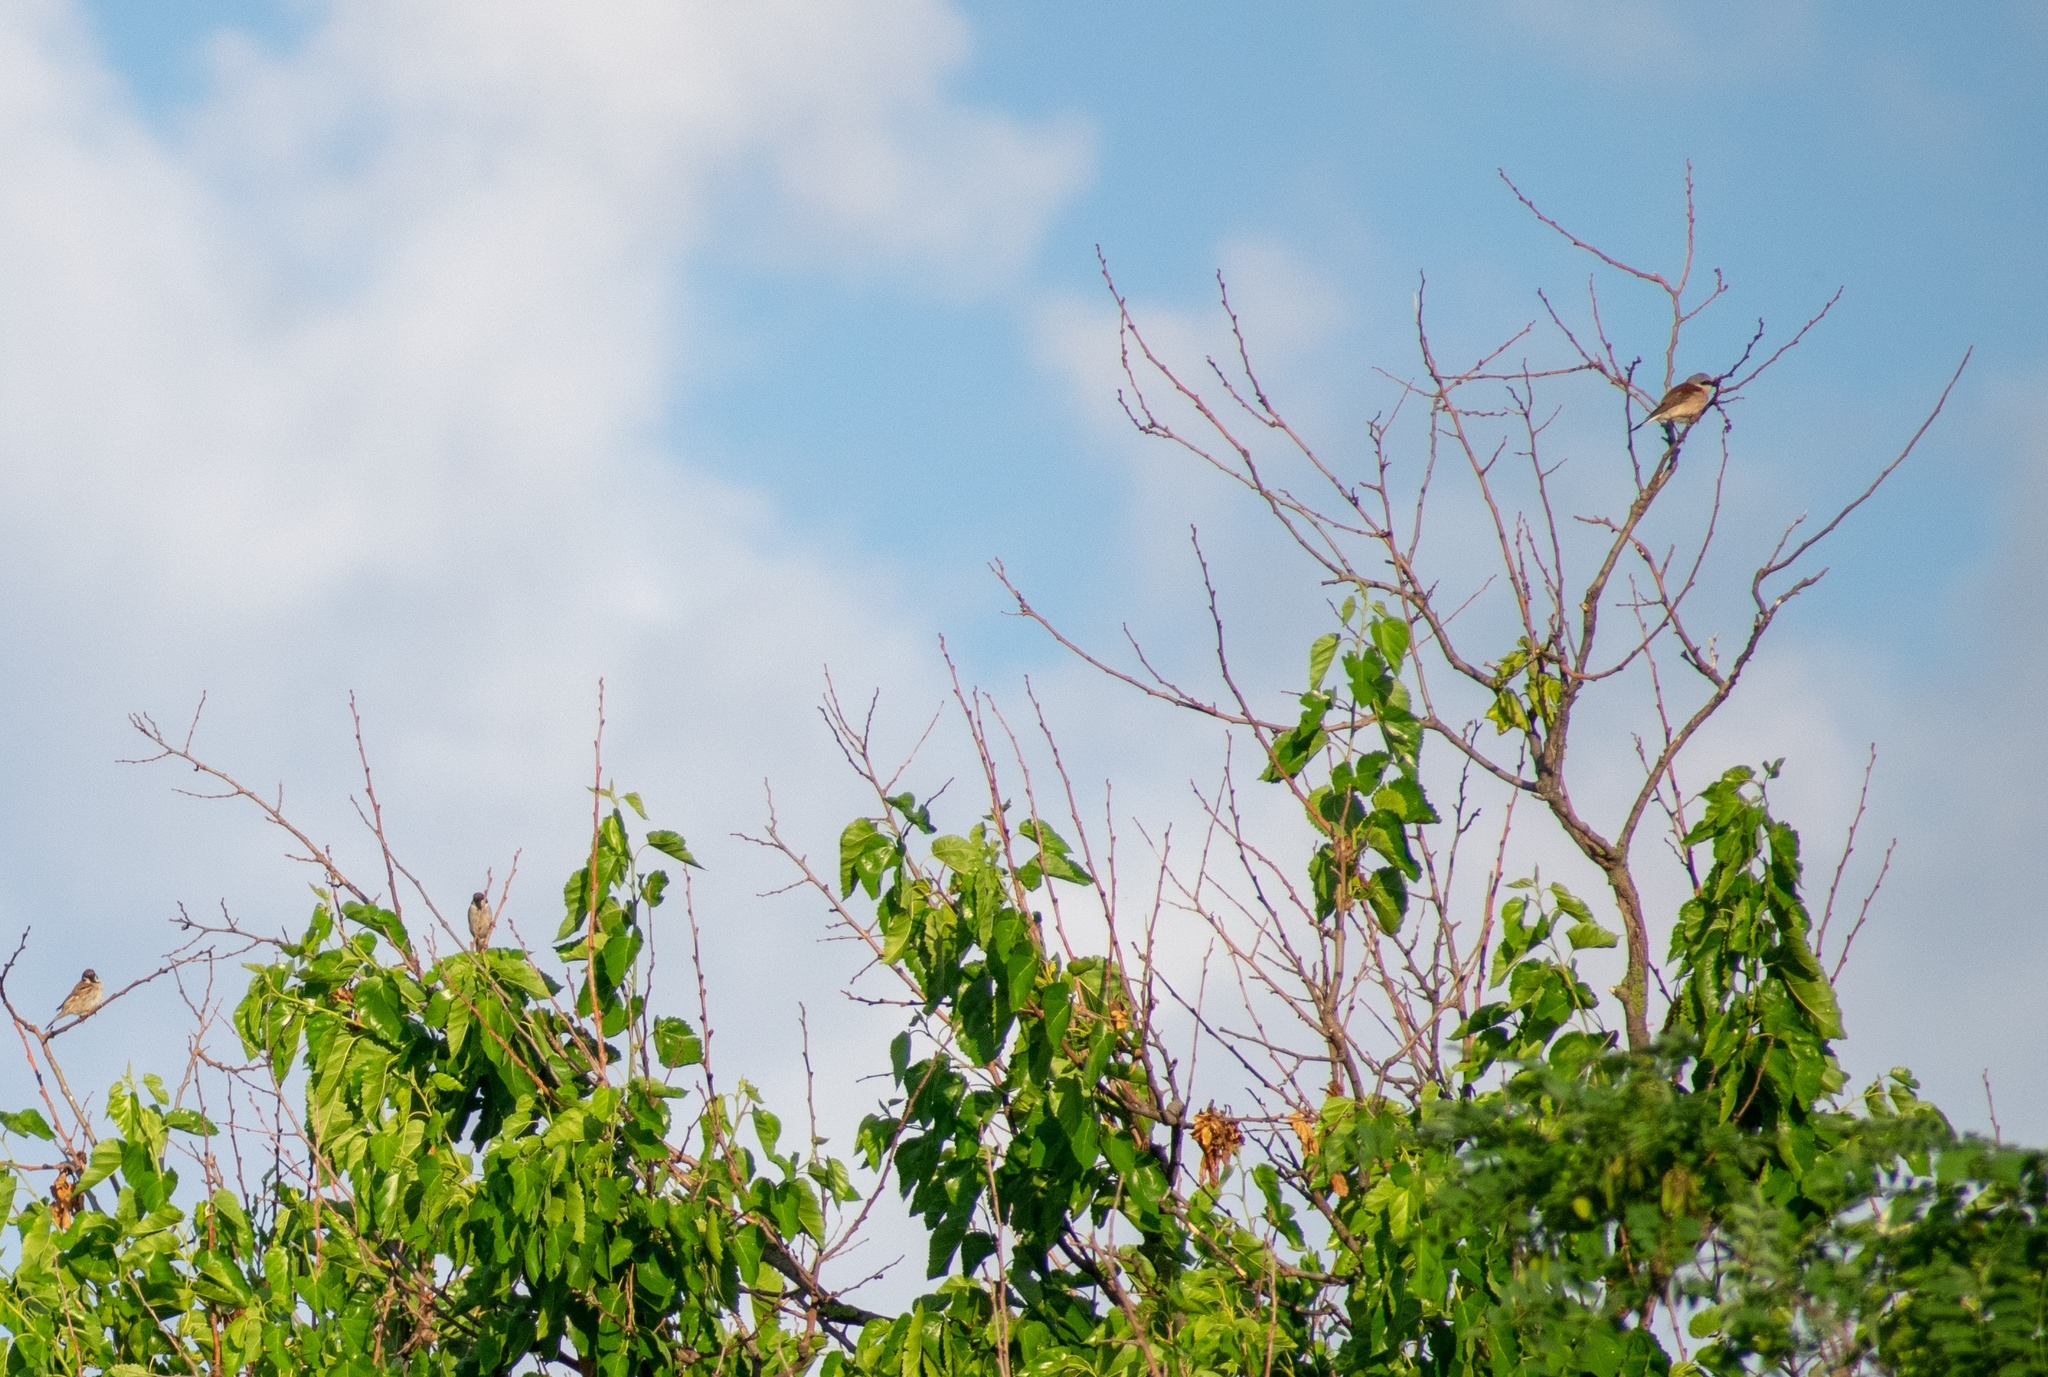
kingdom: Animalia
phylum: Chordata
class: Aves
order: Passeriformes
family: Laniidae
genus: Lanius
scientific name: Lanius collurio
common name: Red-backed shrike
